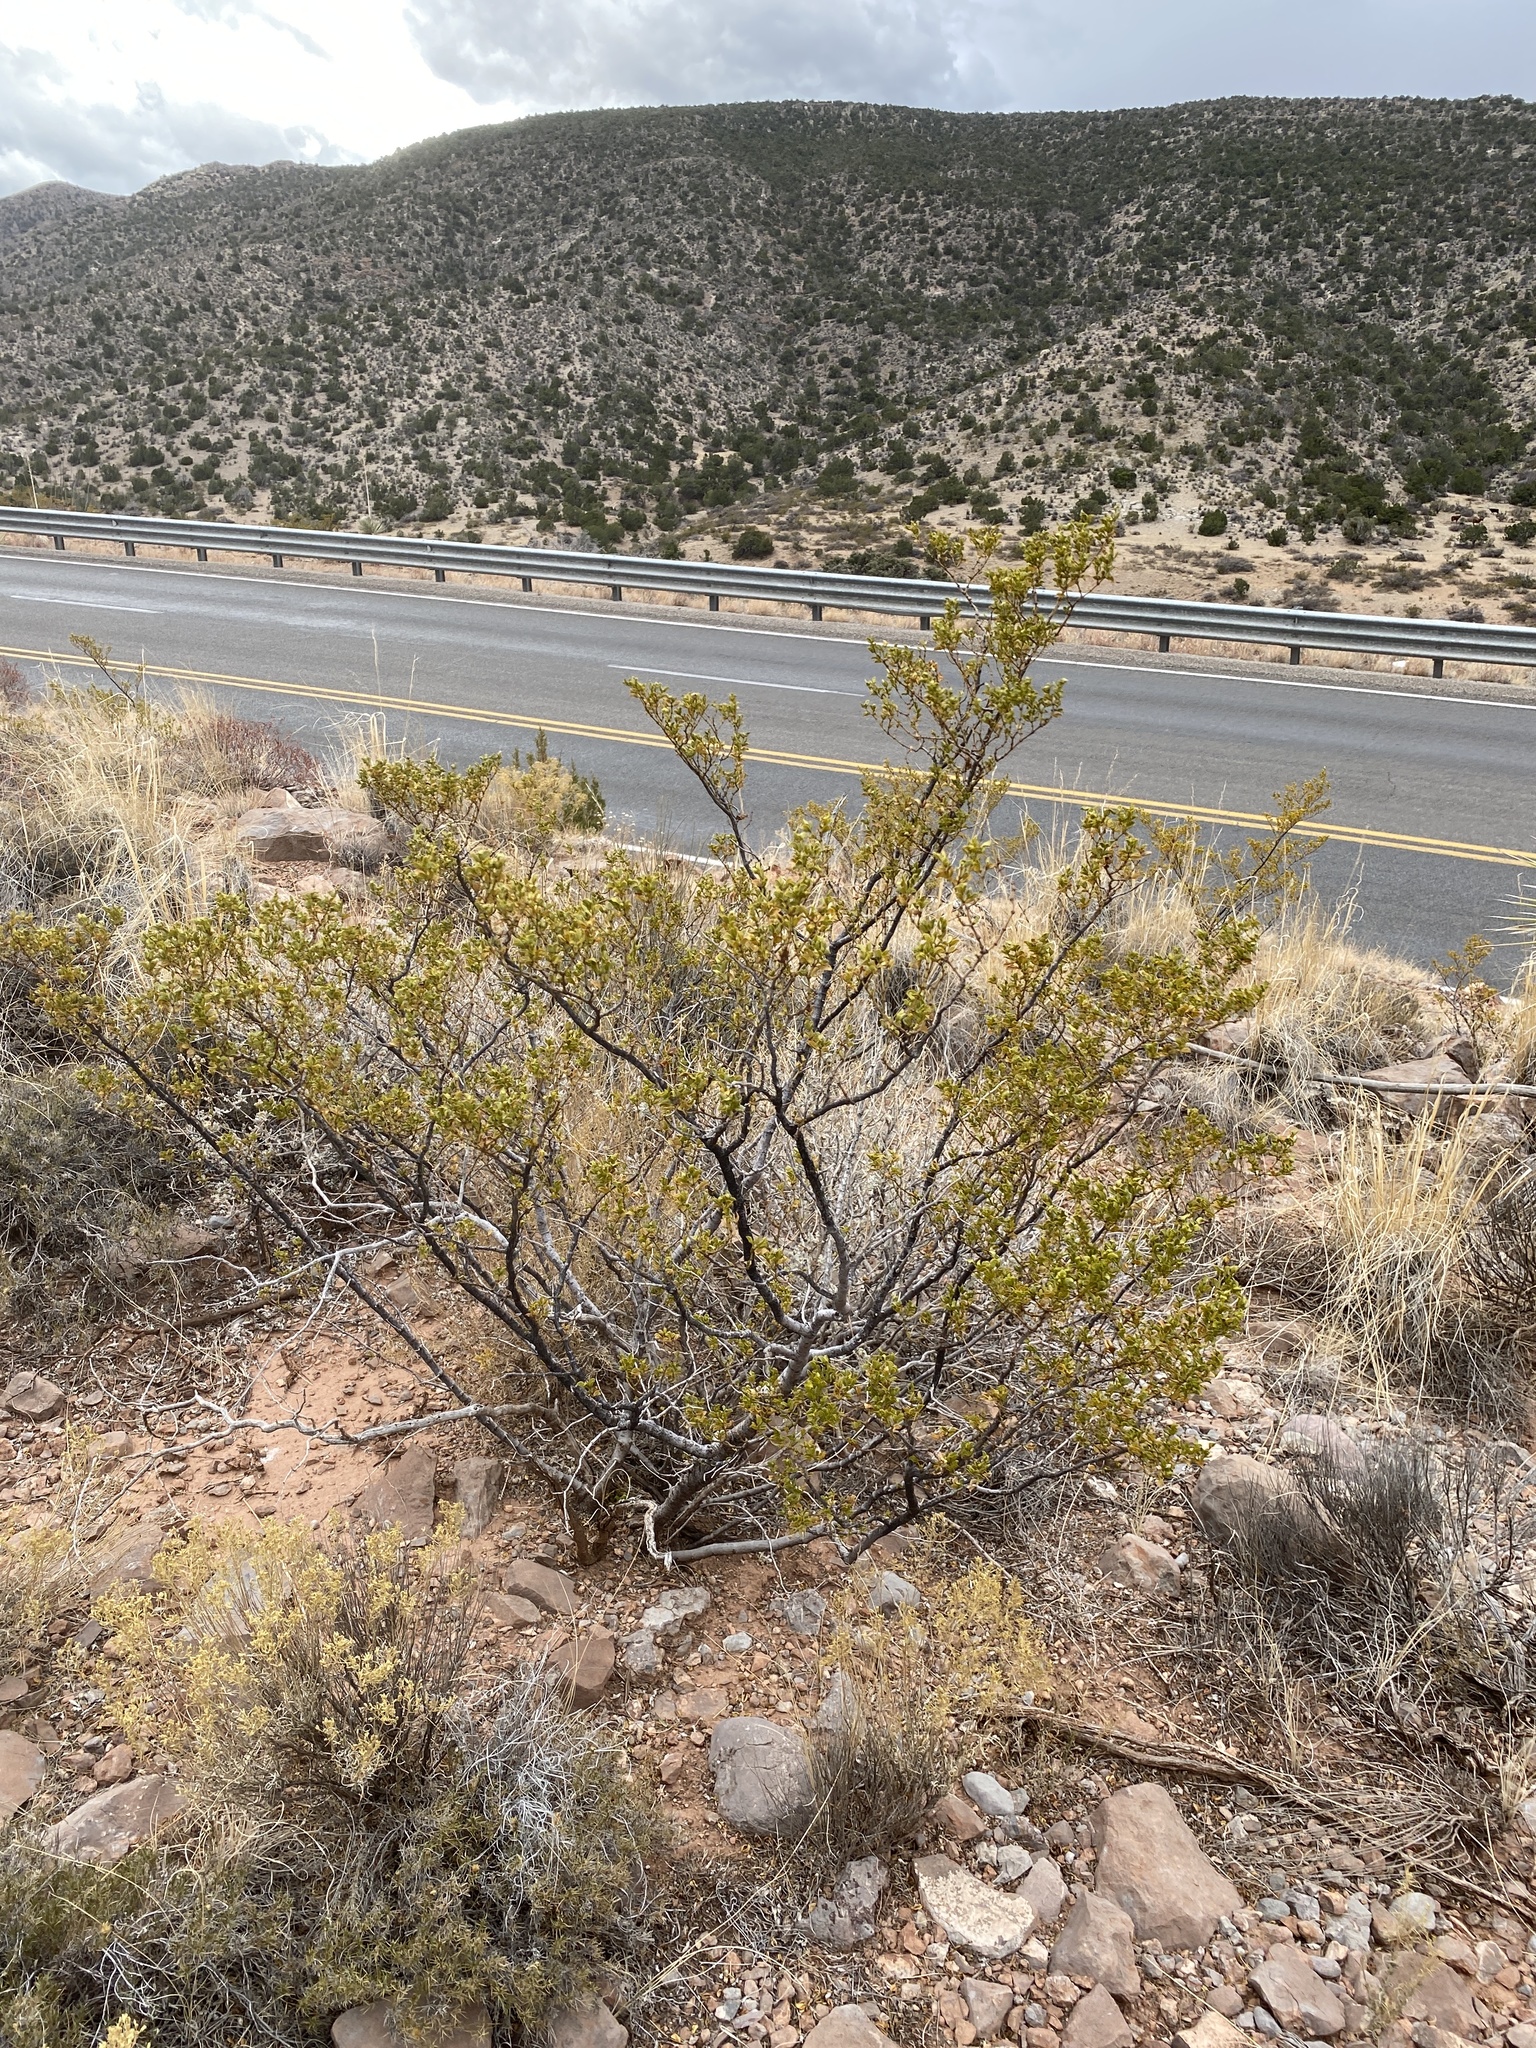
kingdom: Plantae
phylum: Tracheophyta
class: Magnoliopsida
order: Zygophyllales
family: Zygophyllaceae
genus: Larrea
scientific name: Larrea tridentata
